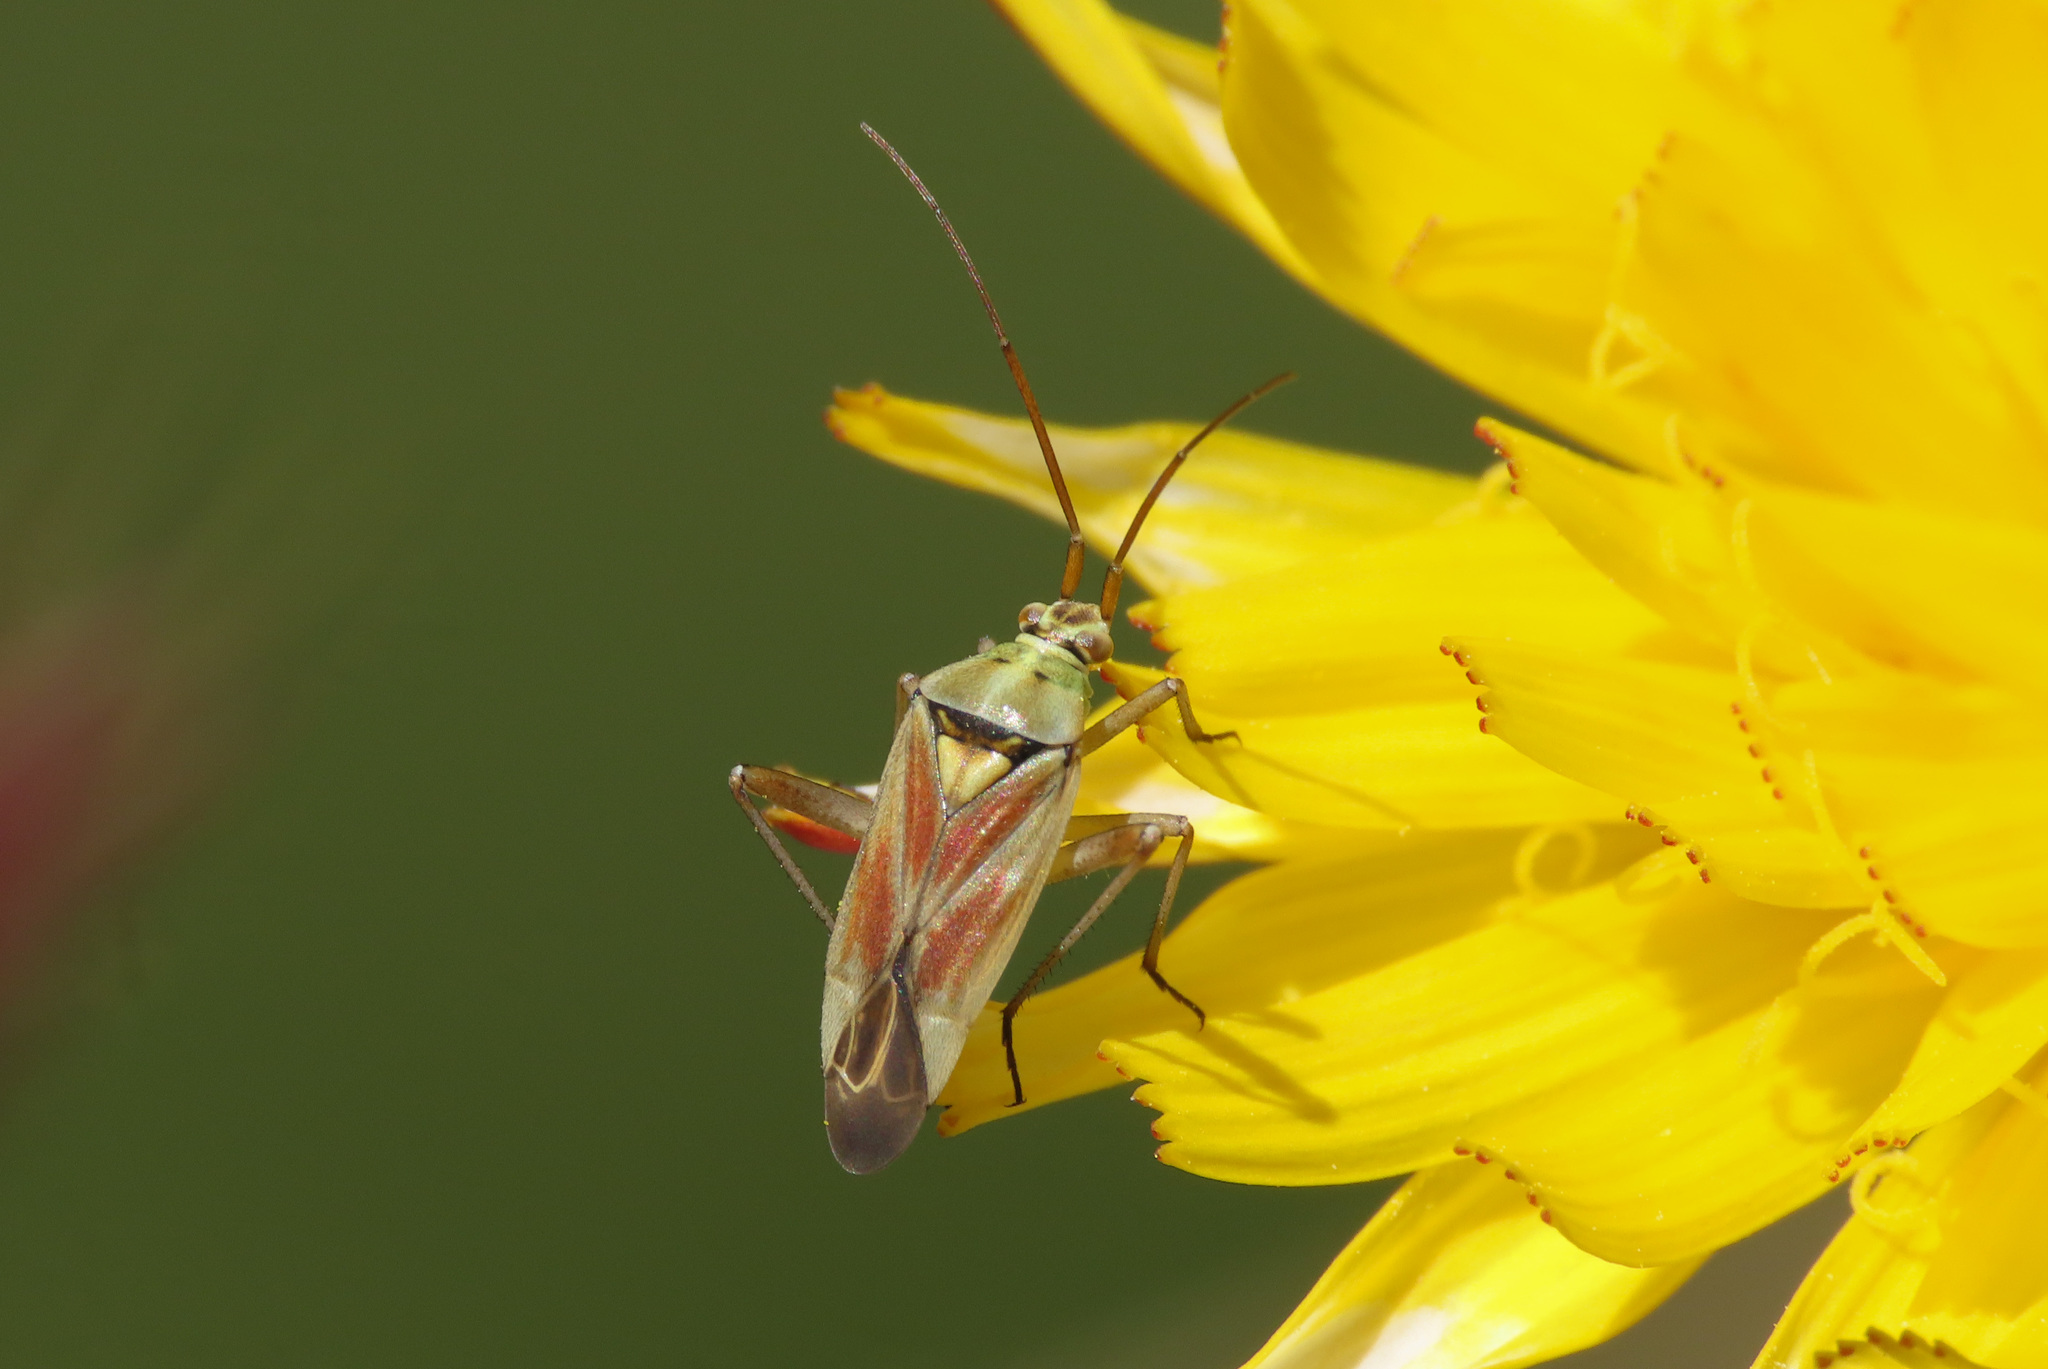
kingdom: Animalia
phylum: Arthropoda
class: Insecta
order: Hemiptera
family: Miridae
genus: Calocoris
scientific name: Calocoris roseomaculatus
